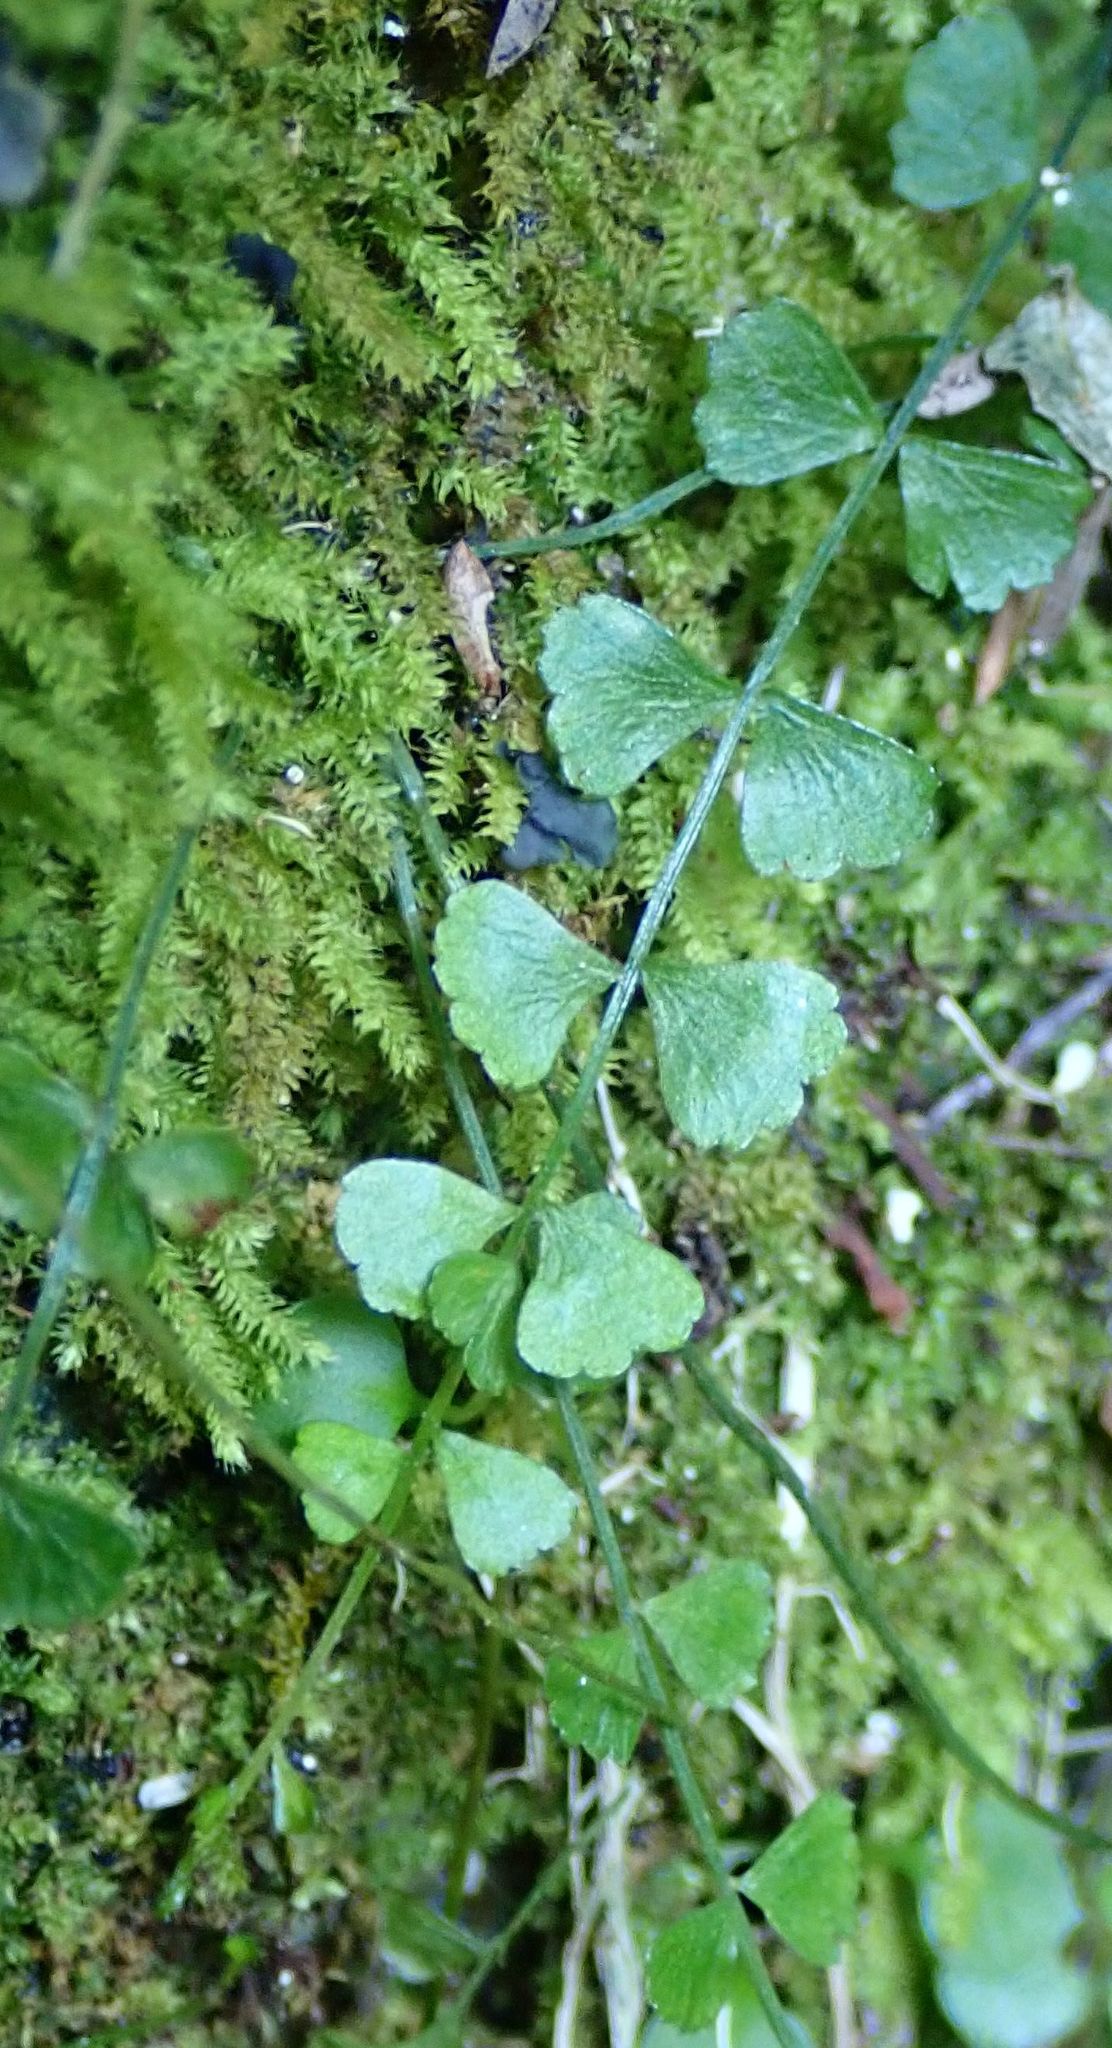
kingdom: Plantae
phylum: Tracheophyta
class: Polypodiopsida
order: Polypodiales
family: Aspleniaceae
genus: Asplenium
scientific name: Asplenium flabellifolium
